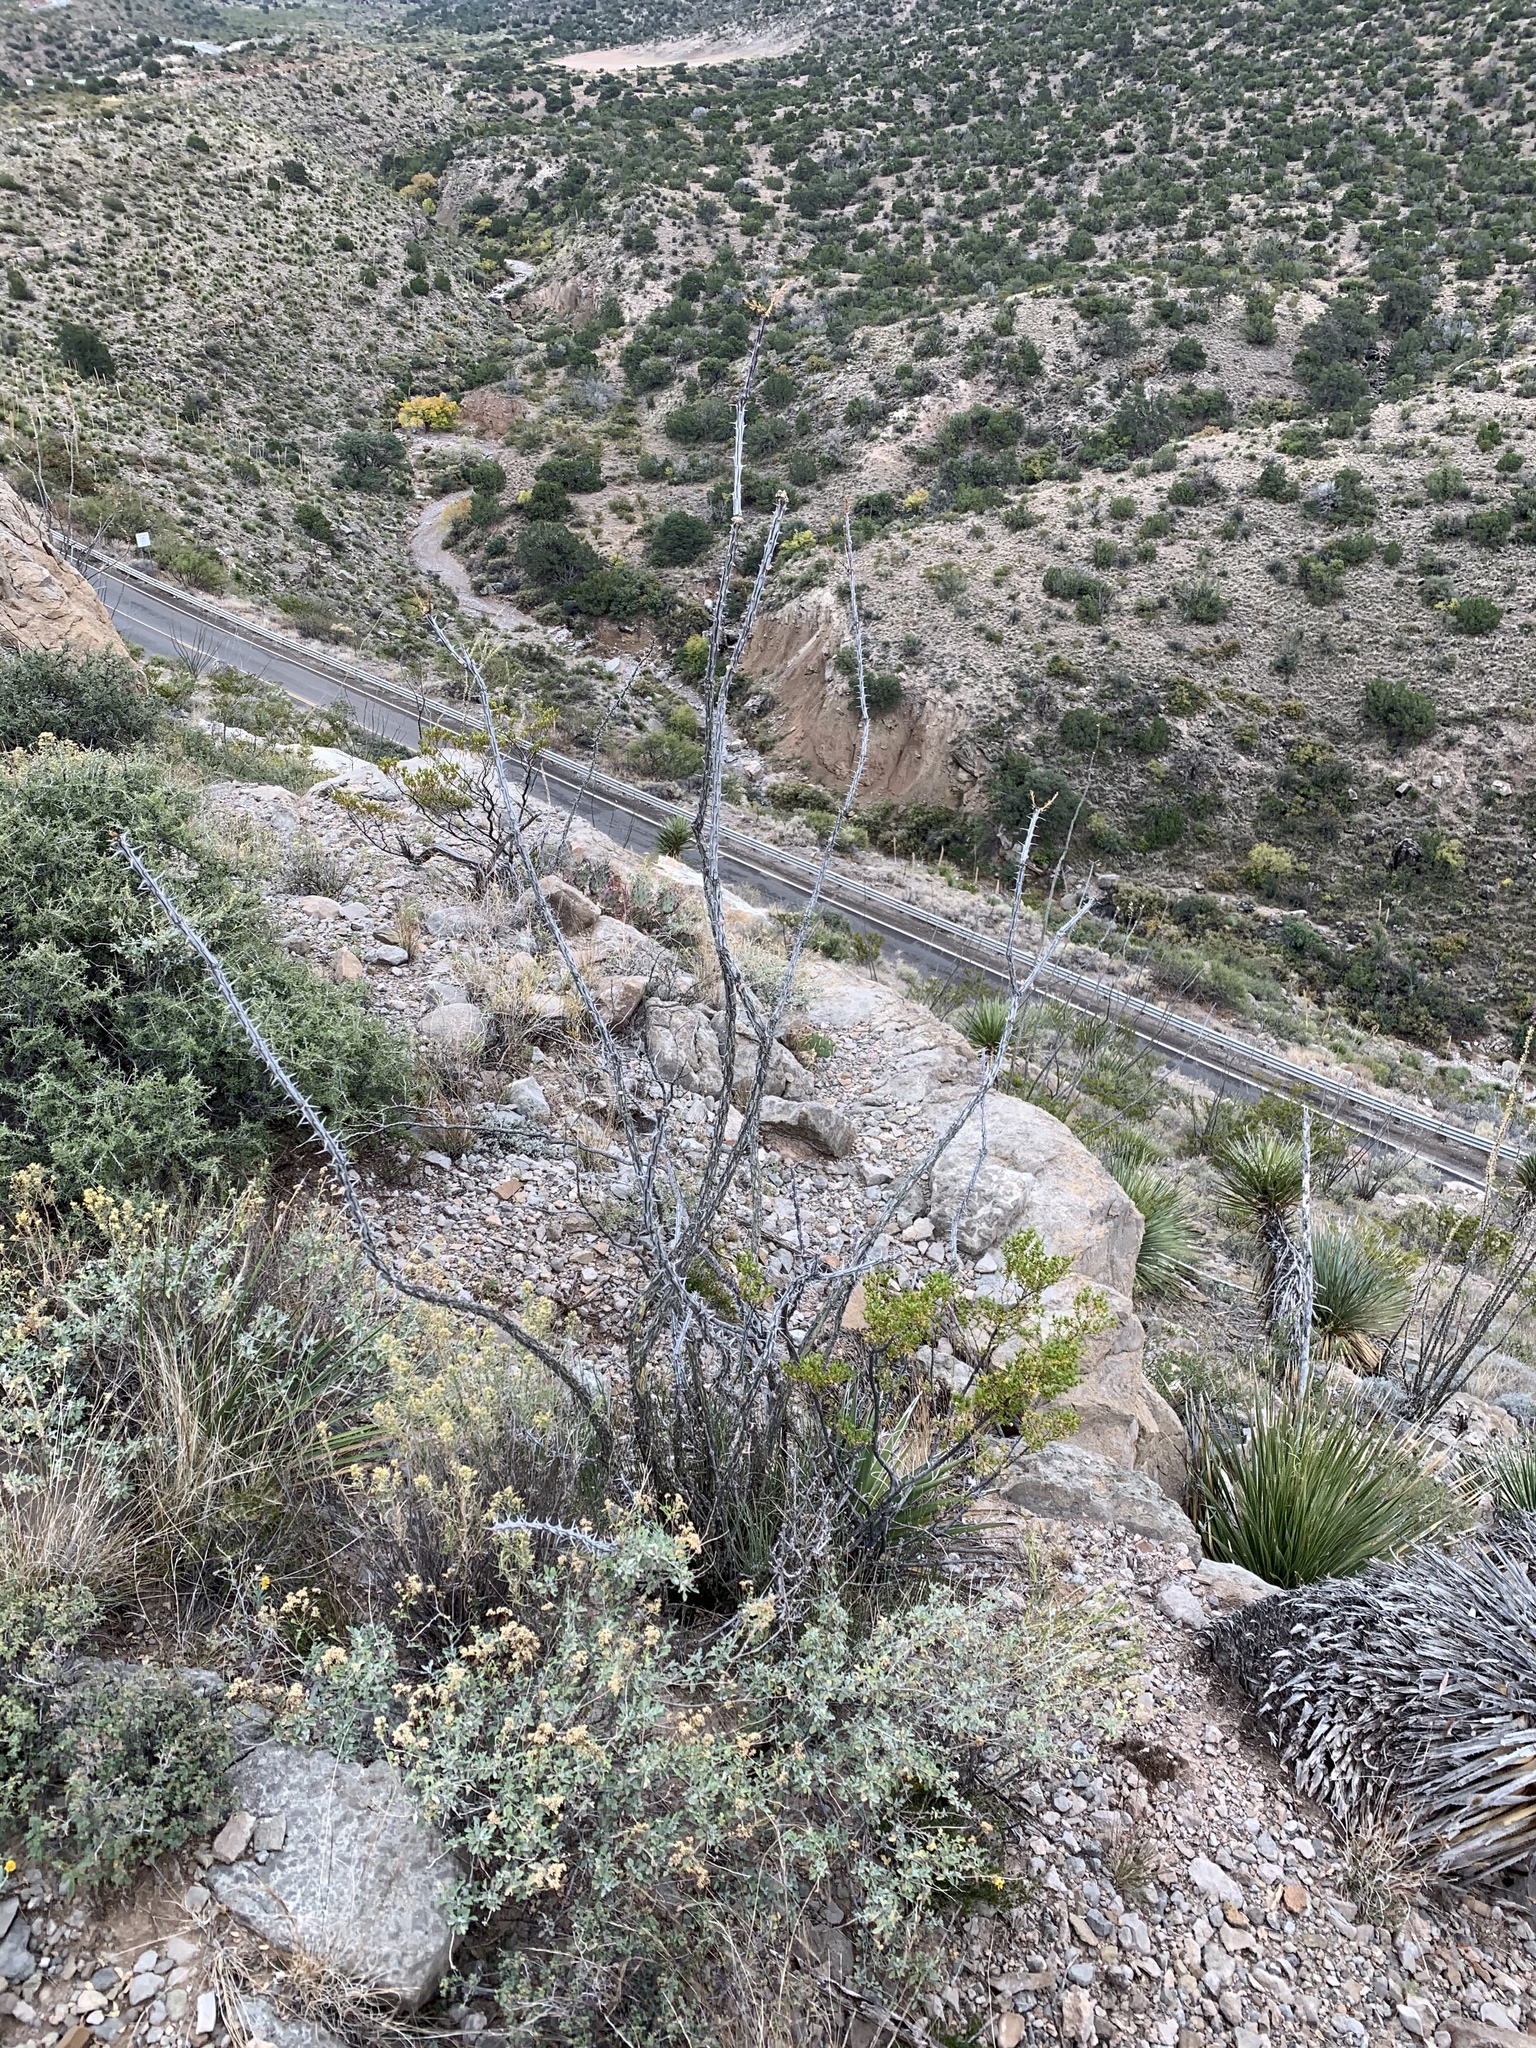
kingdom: Plantae
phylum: Tracheophyta
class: Magnoliopsida
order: Ericales
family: Fouquieriaceae
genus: Fouquieria
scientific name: Fouquieria splendens
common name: Vine-cactus
